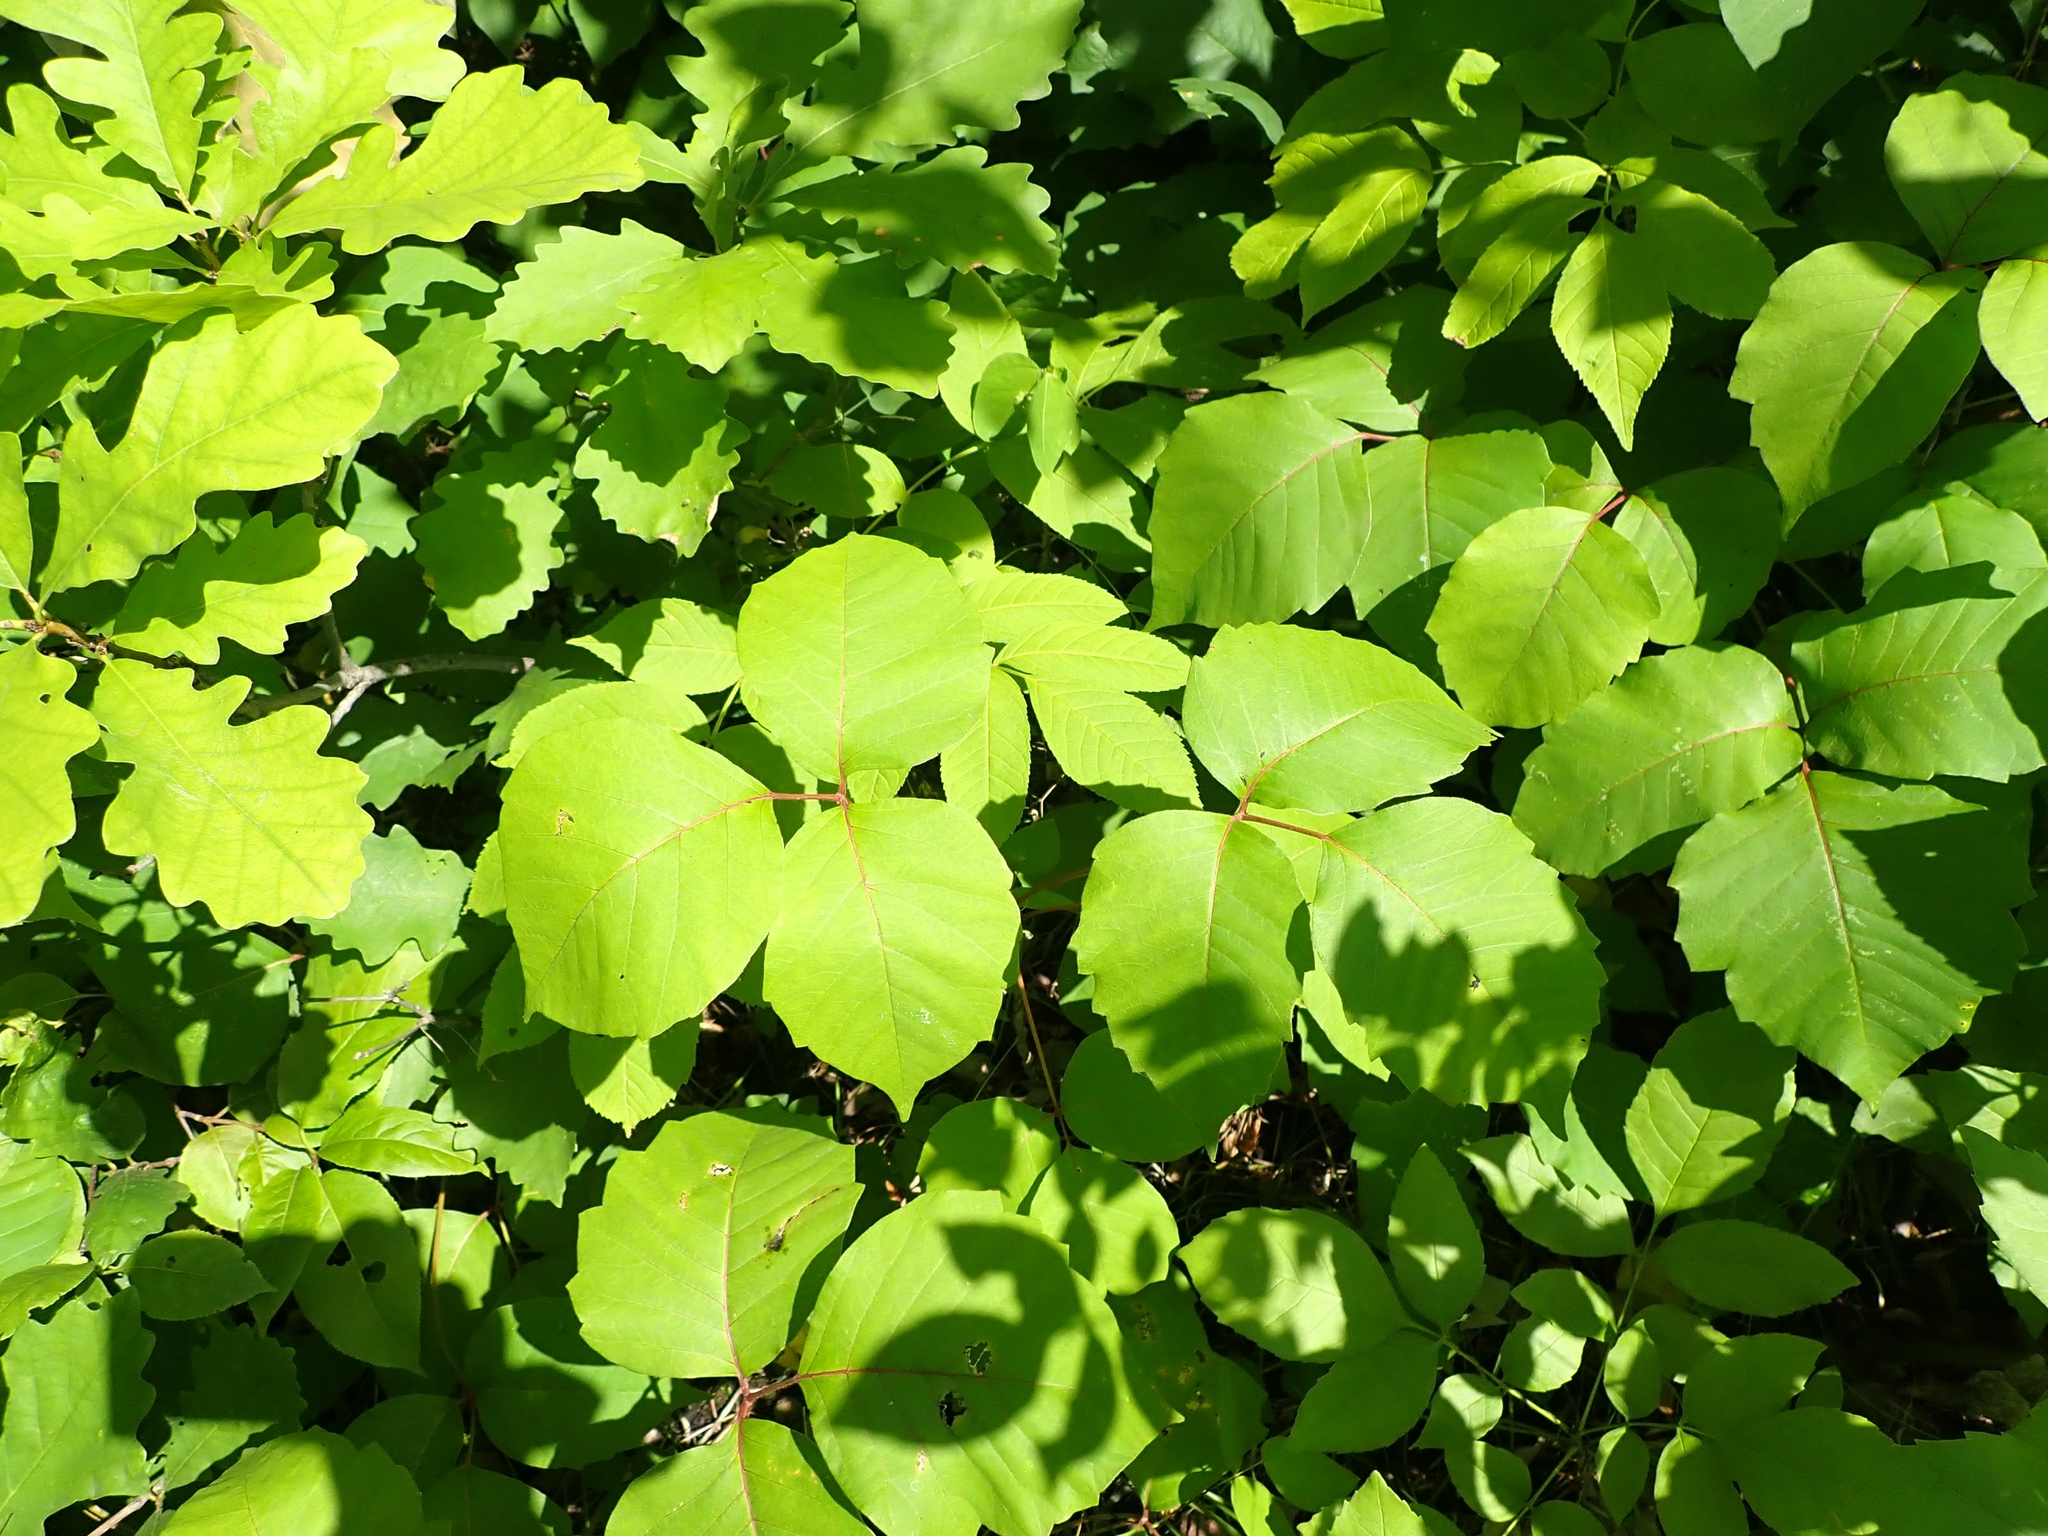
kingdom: Plantae
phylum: Tracheophyta
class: Magnoliopsida
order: Sapindales
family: Anacardiaceae
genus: Toxicodendron
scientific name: Toxicodendron rydbergii
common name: Rydberg's poison-ivy
